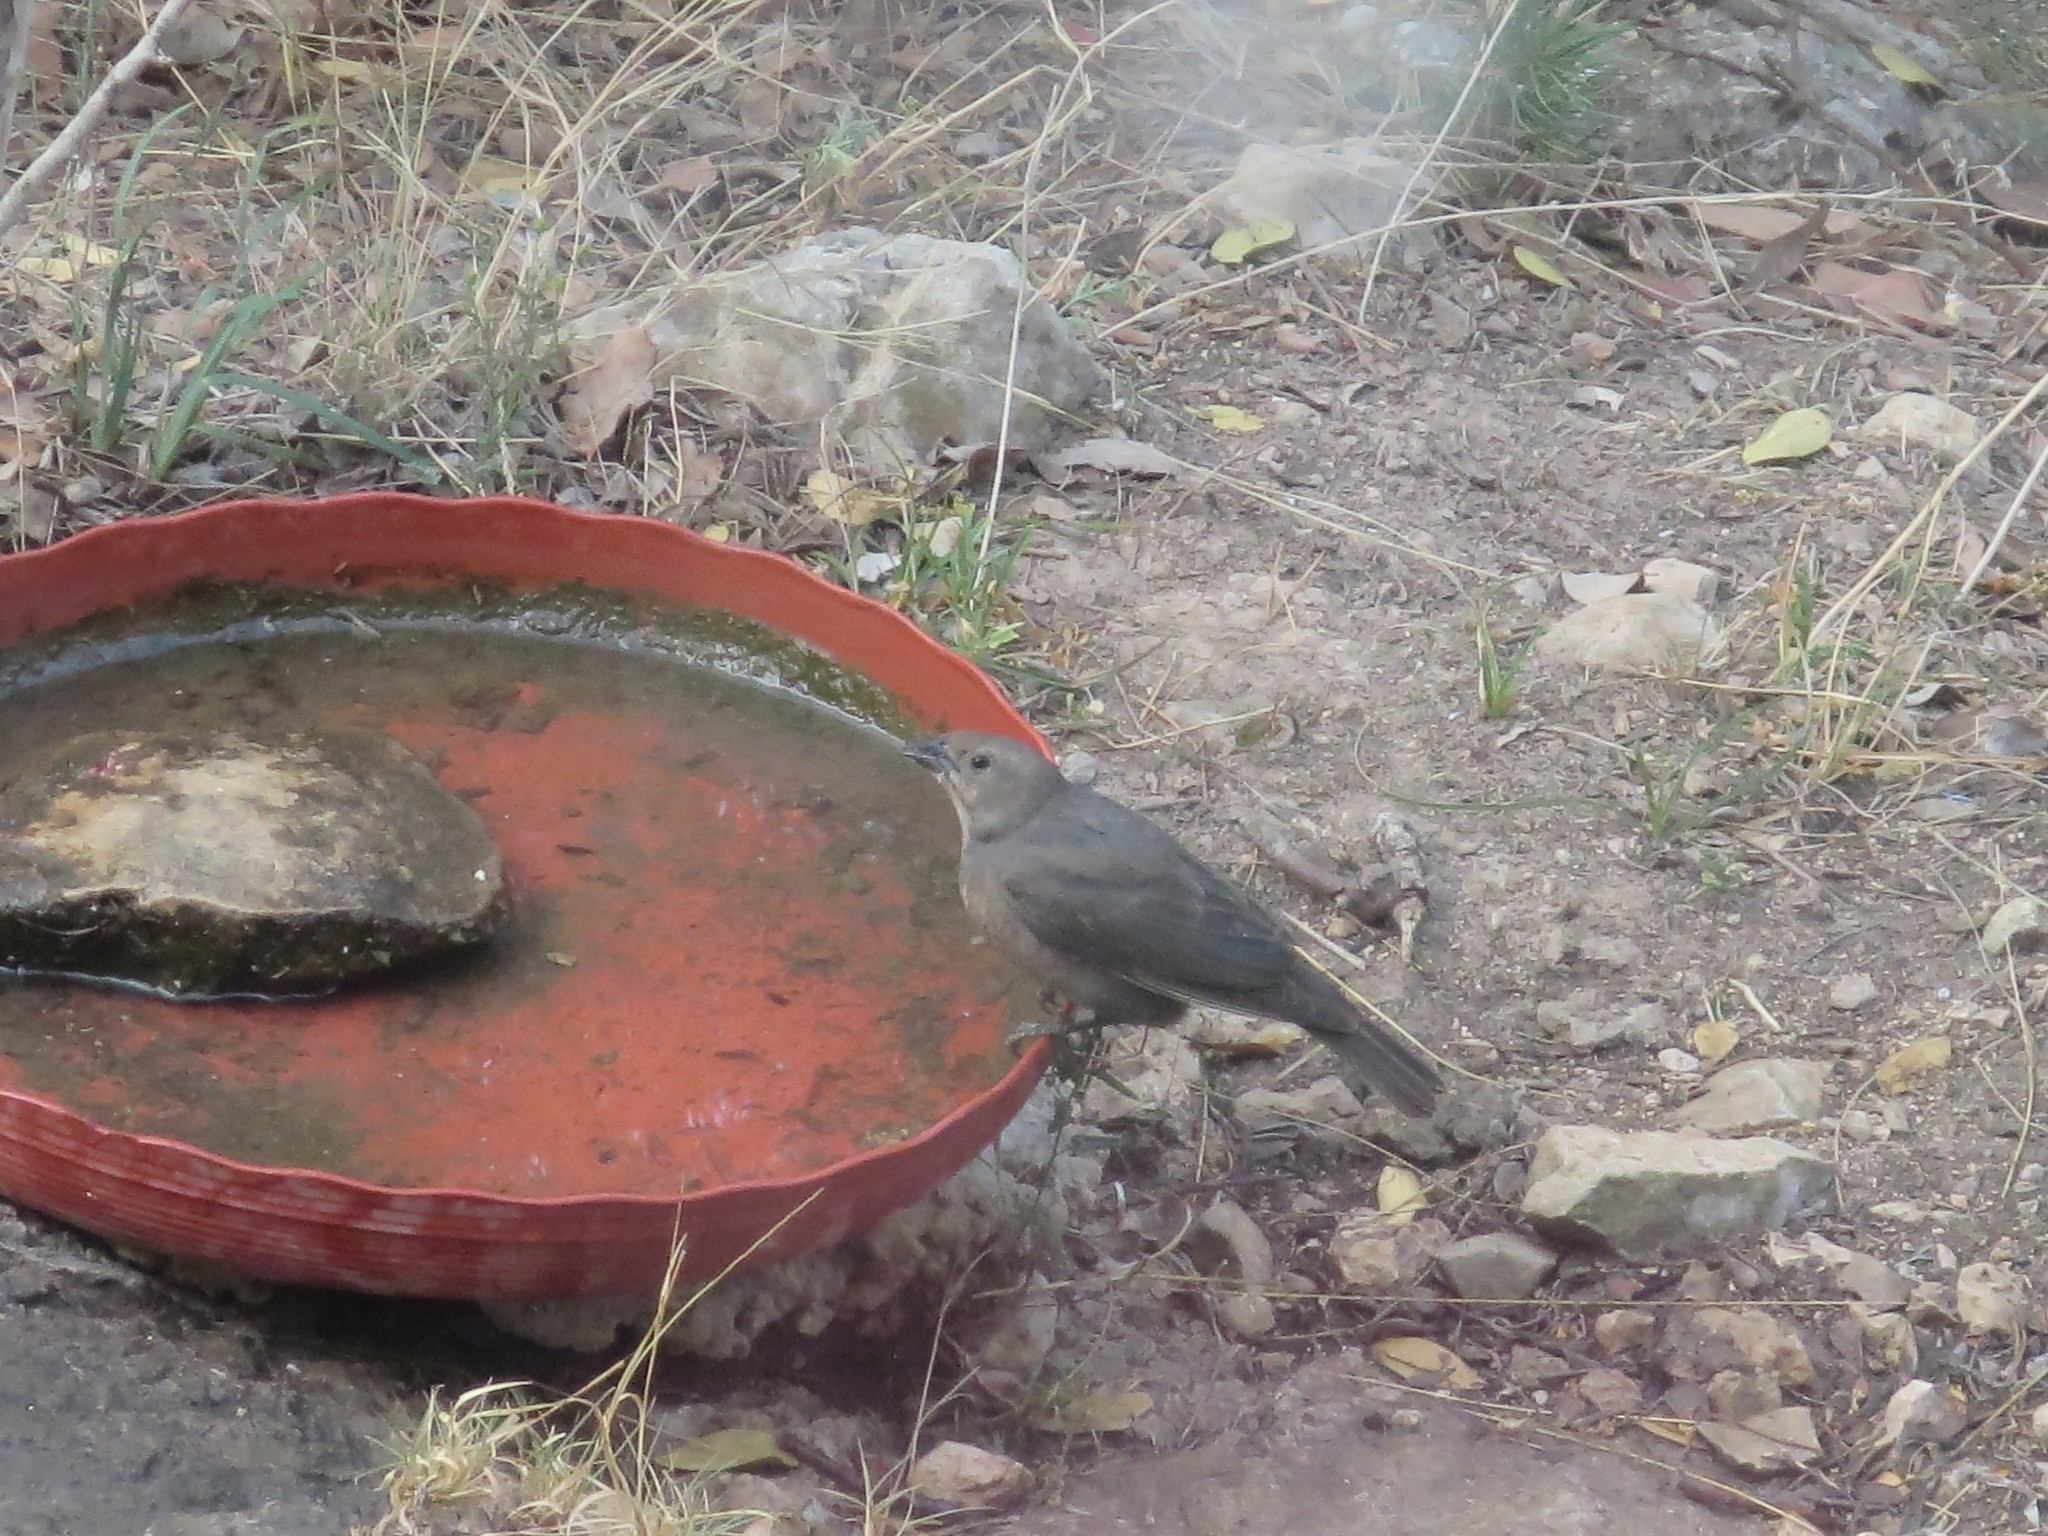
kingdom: Animalia
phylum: Chordata
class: Aves
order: Passeriformes
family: Icteridae
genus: Molothrus
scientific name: Molothrus ater
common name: Brown-headed cowbird
